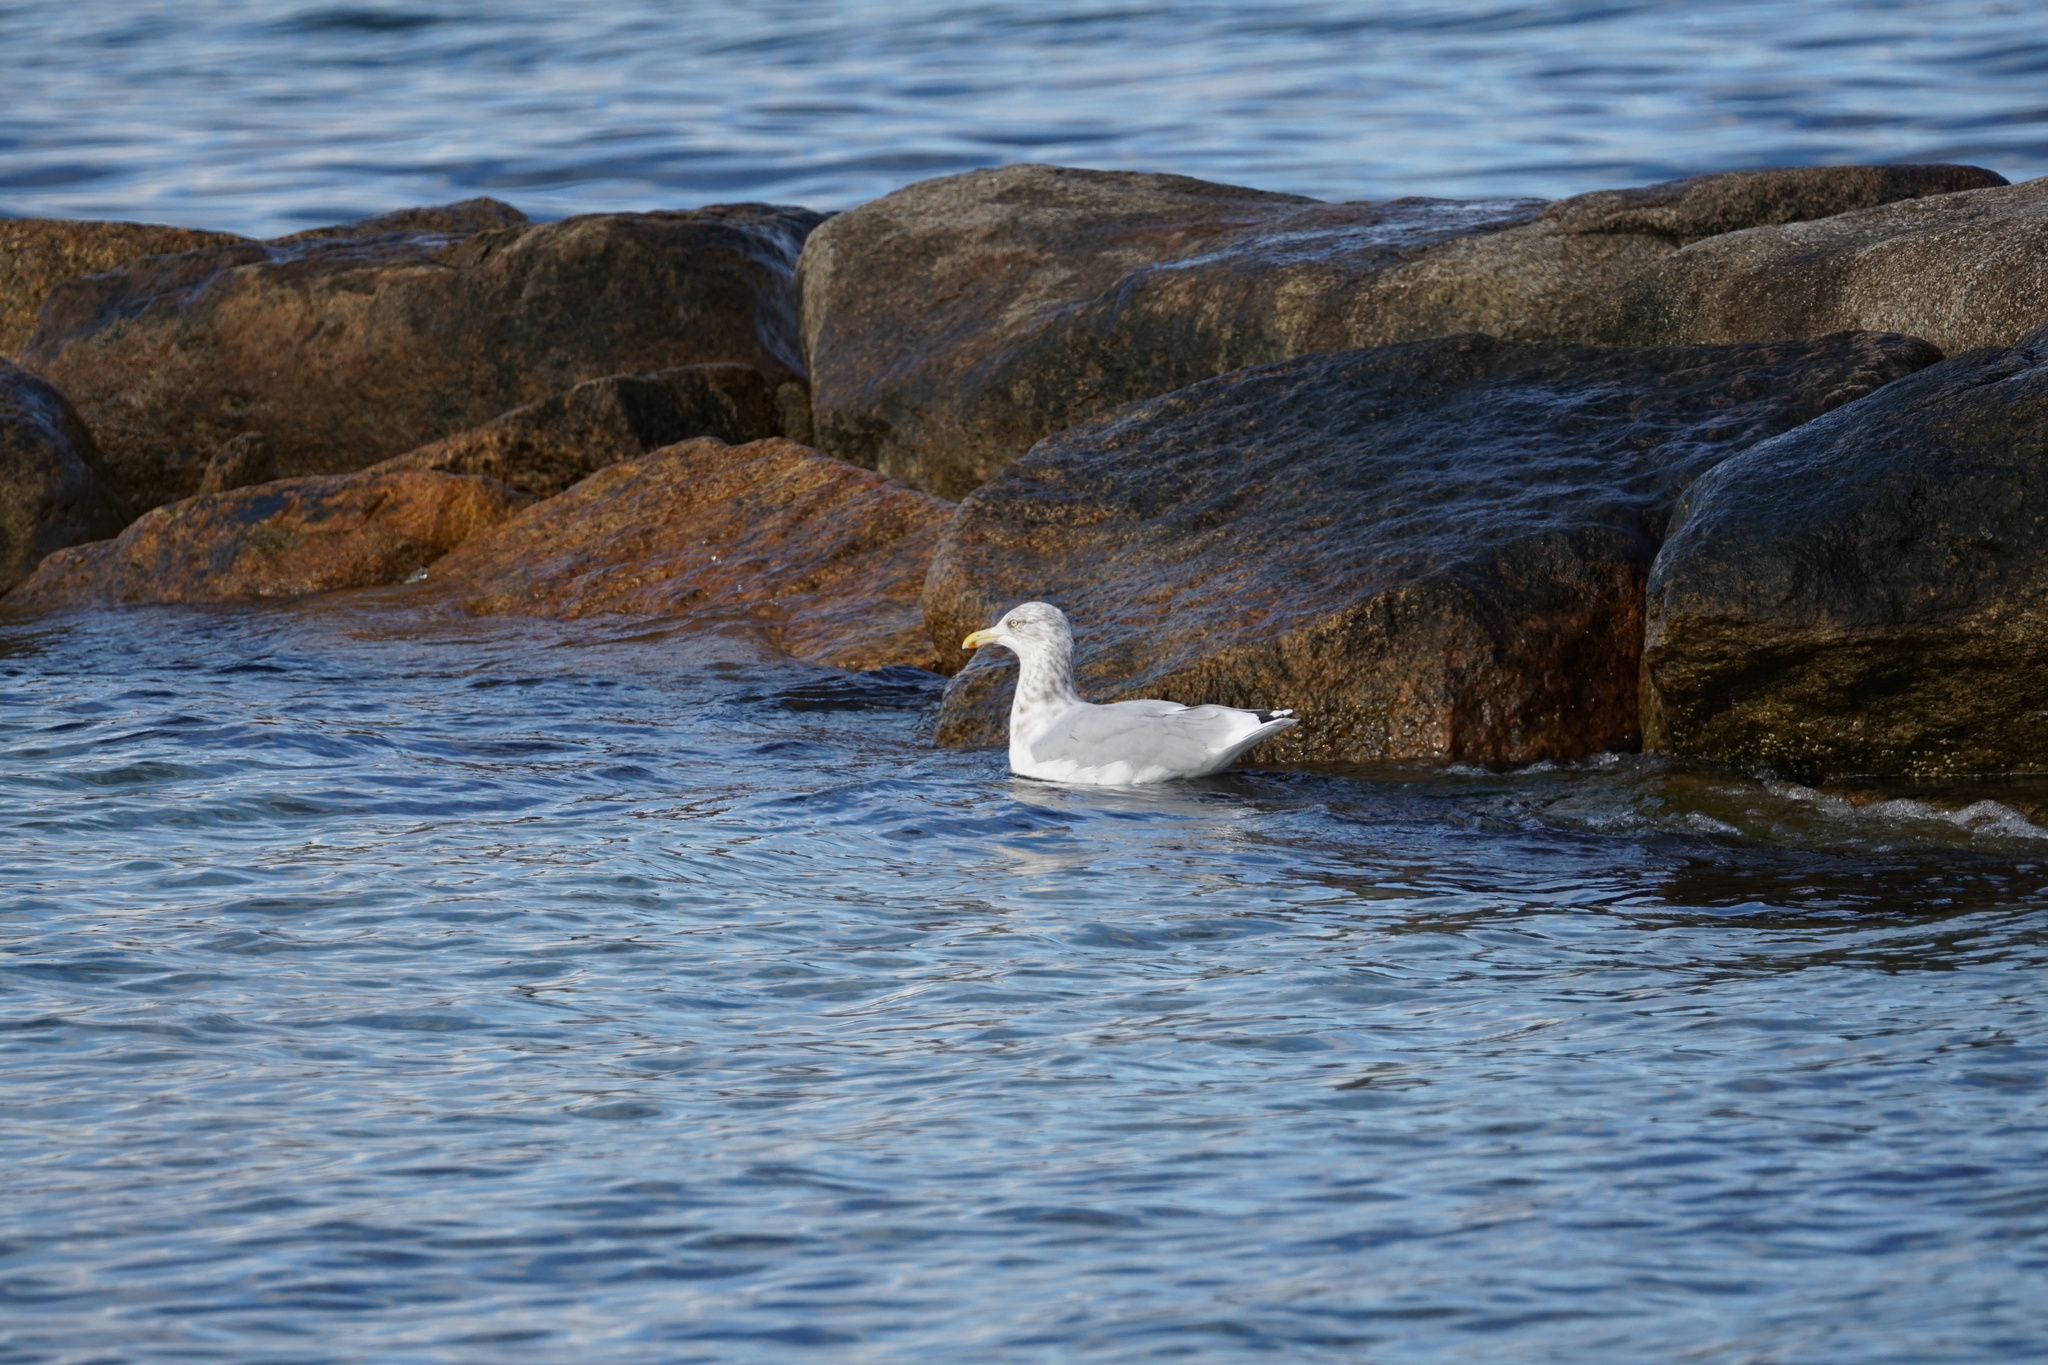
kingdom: Animalia
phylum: Chordata
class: Aves
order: Charadriiformes
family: Laridae
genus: Larus
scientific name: Larus argentatus
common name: Herring gull
